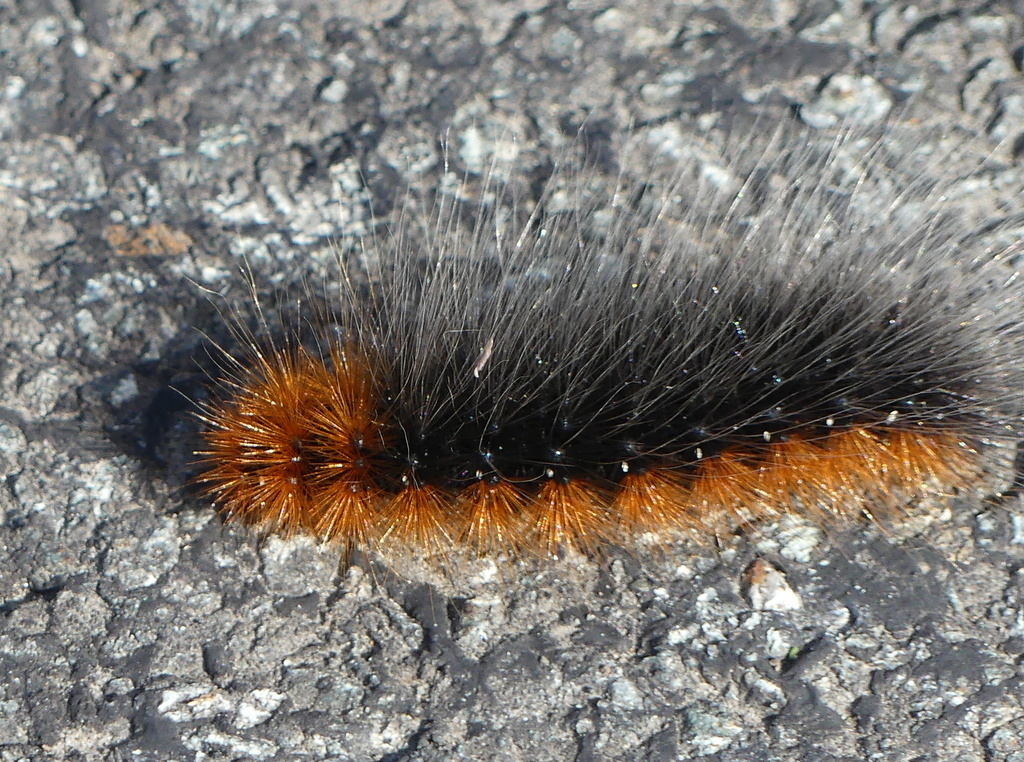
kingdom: Animalia
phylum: Arthropoda
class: Insecta
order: Lepidoptera
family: Erebidae
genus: Arctia
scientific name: Arctia caja
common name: Garden tiger
